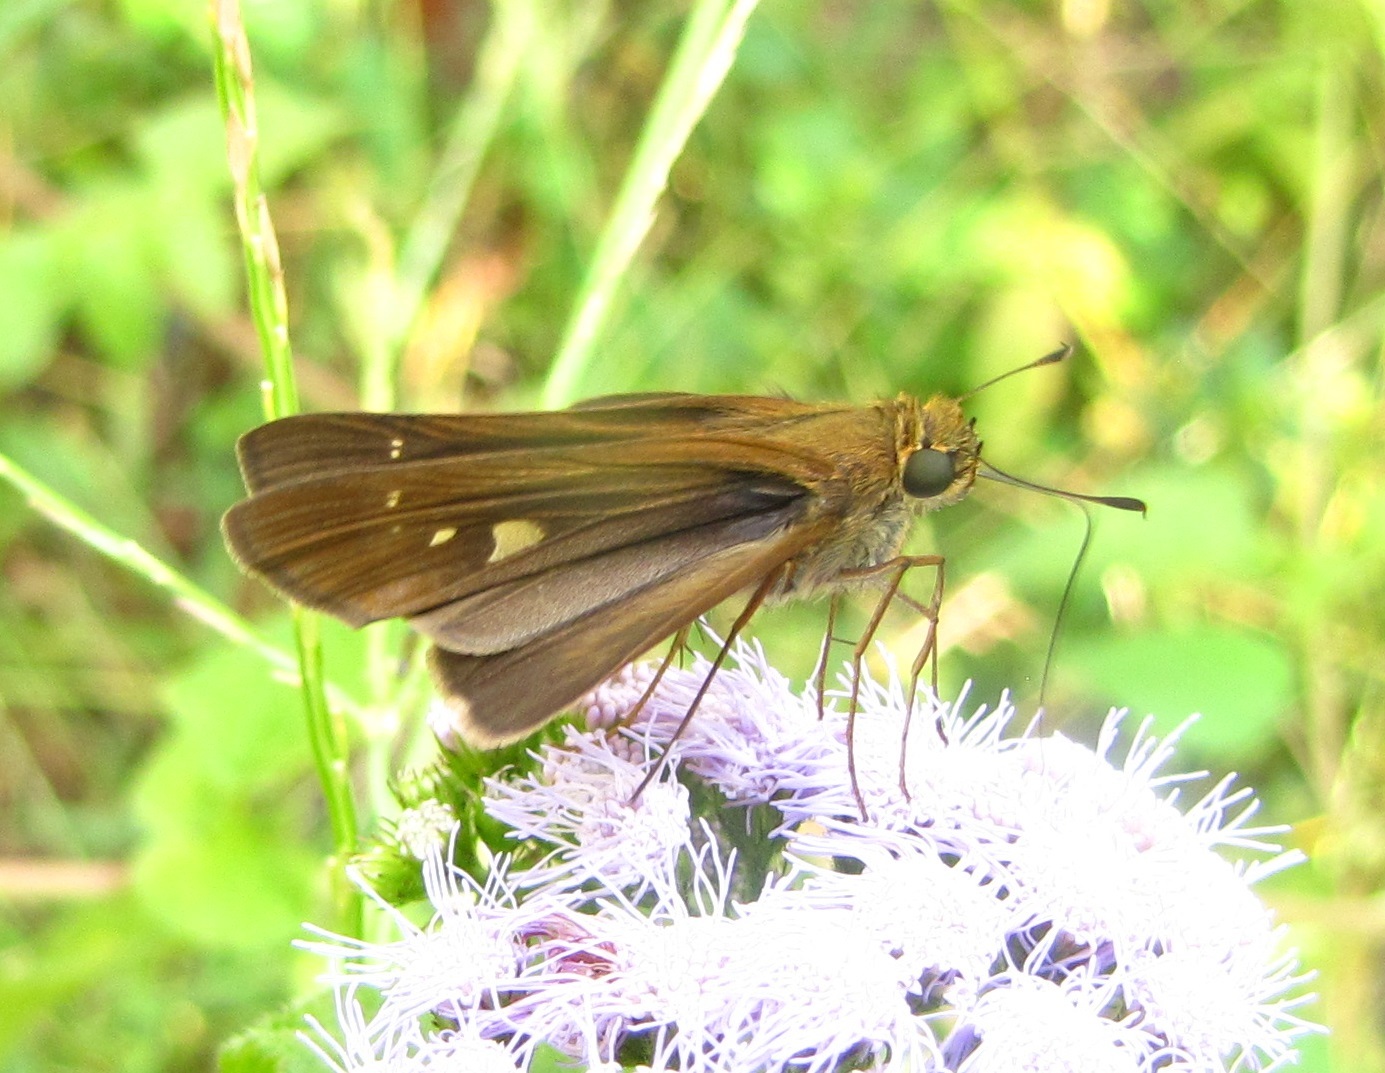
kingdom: Animalia
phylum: Arthropoda
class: Insecta
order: Lepidoptera
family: Hesperiidae
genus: Panoquina
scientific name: Panoquina ocola
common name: Ocola skipper
